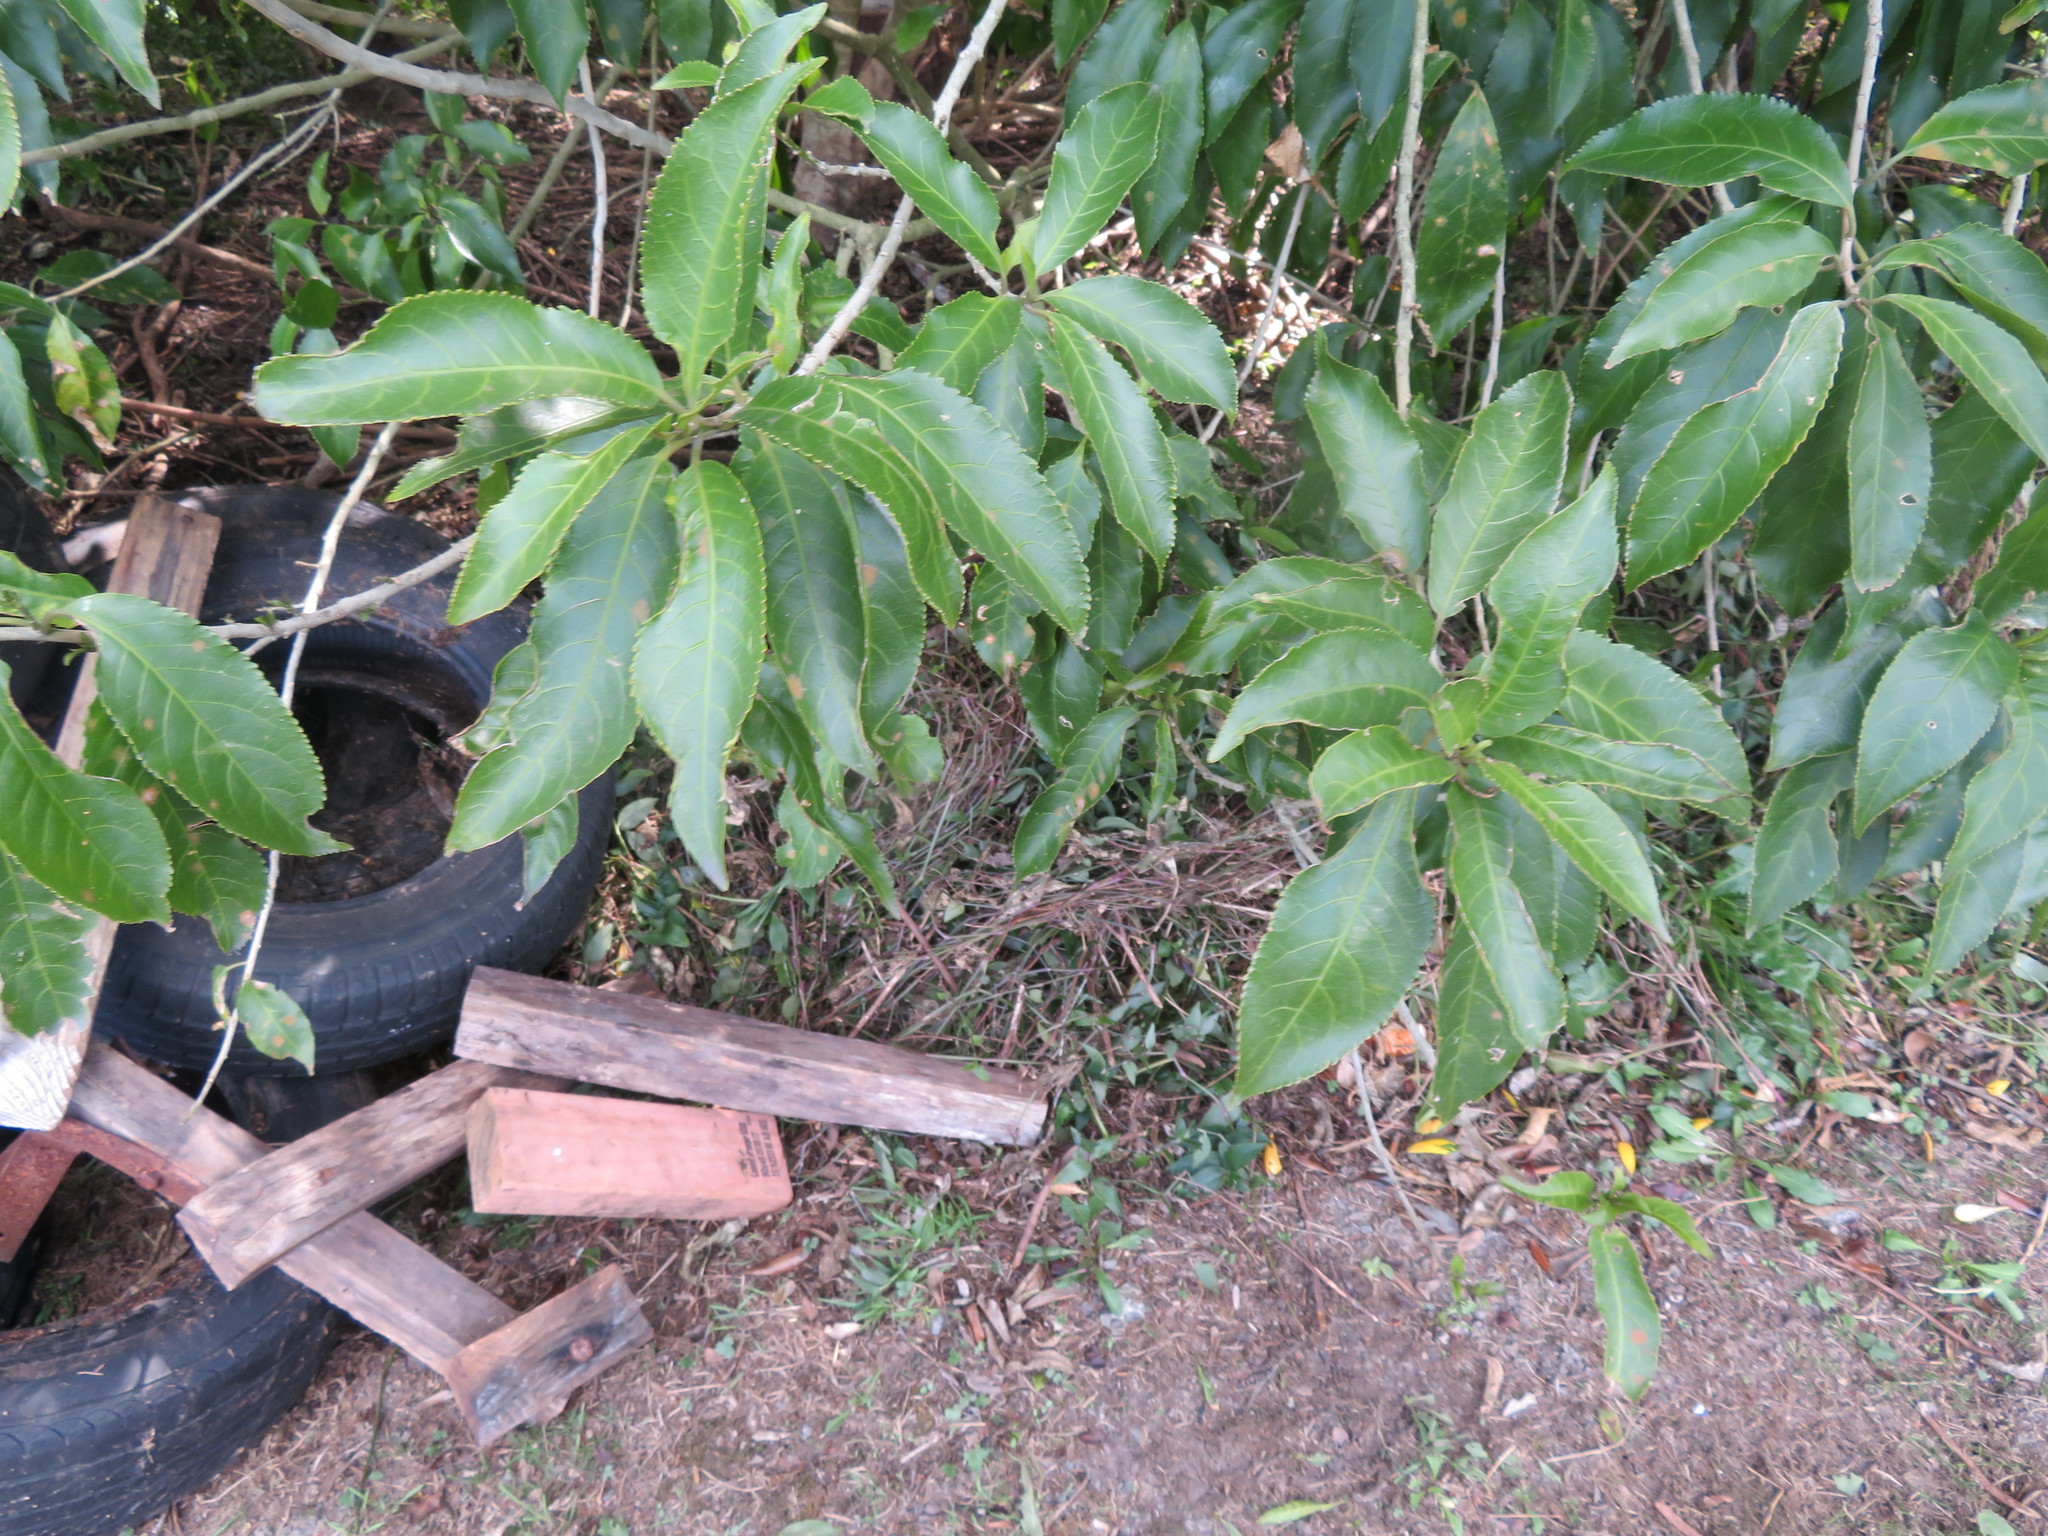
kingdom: Plantae
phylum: Tracheophyta
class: Magnoliopsida
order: Malpighiales
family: Violaceae
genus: Melicytus
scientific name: Melicytus ramiflorus
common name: Mahoe
